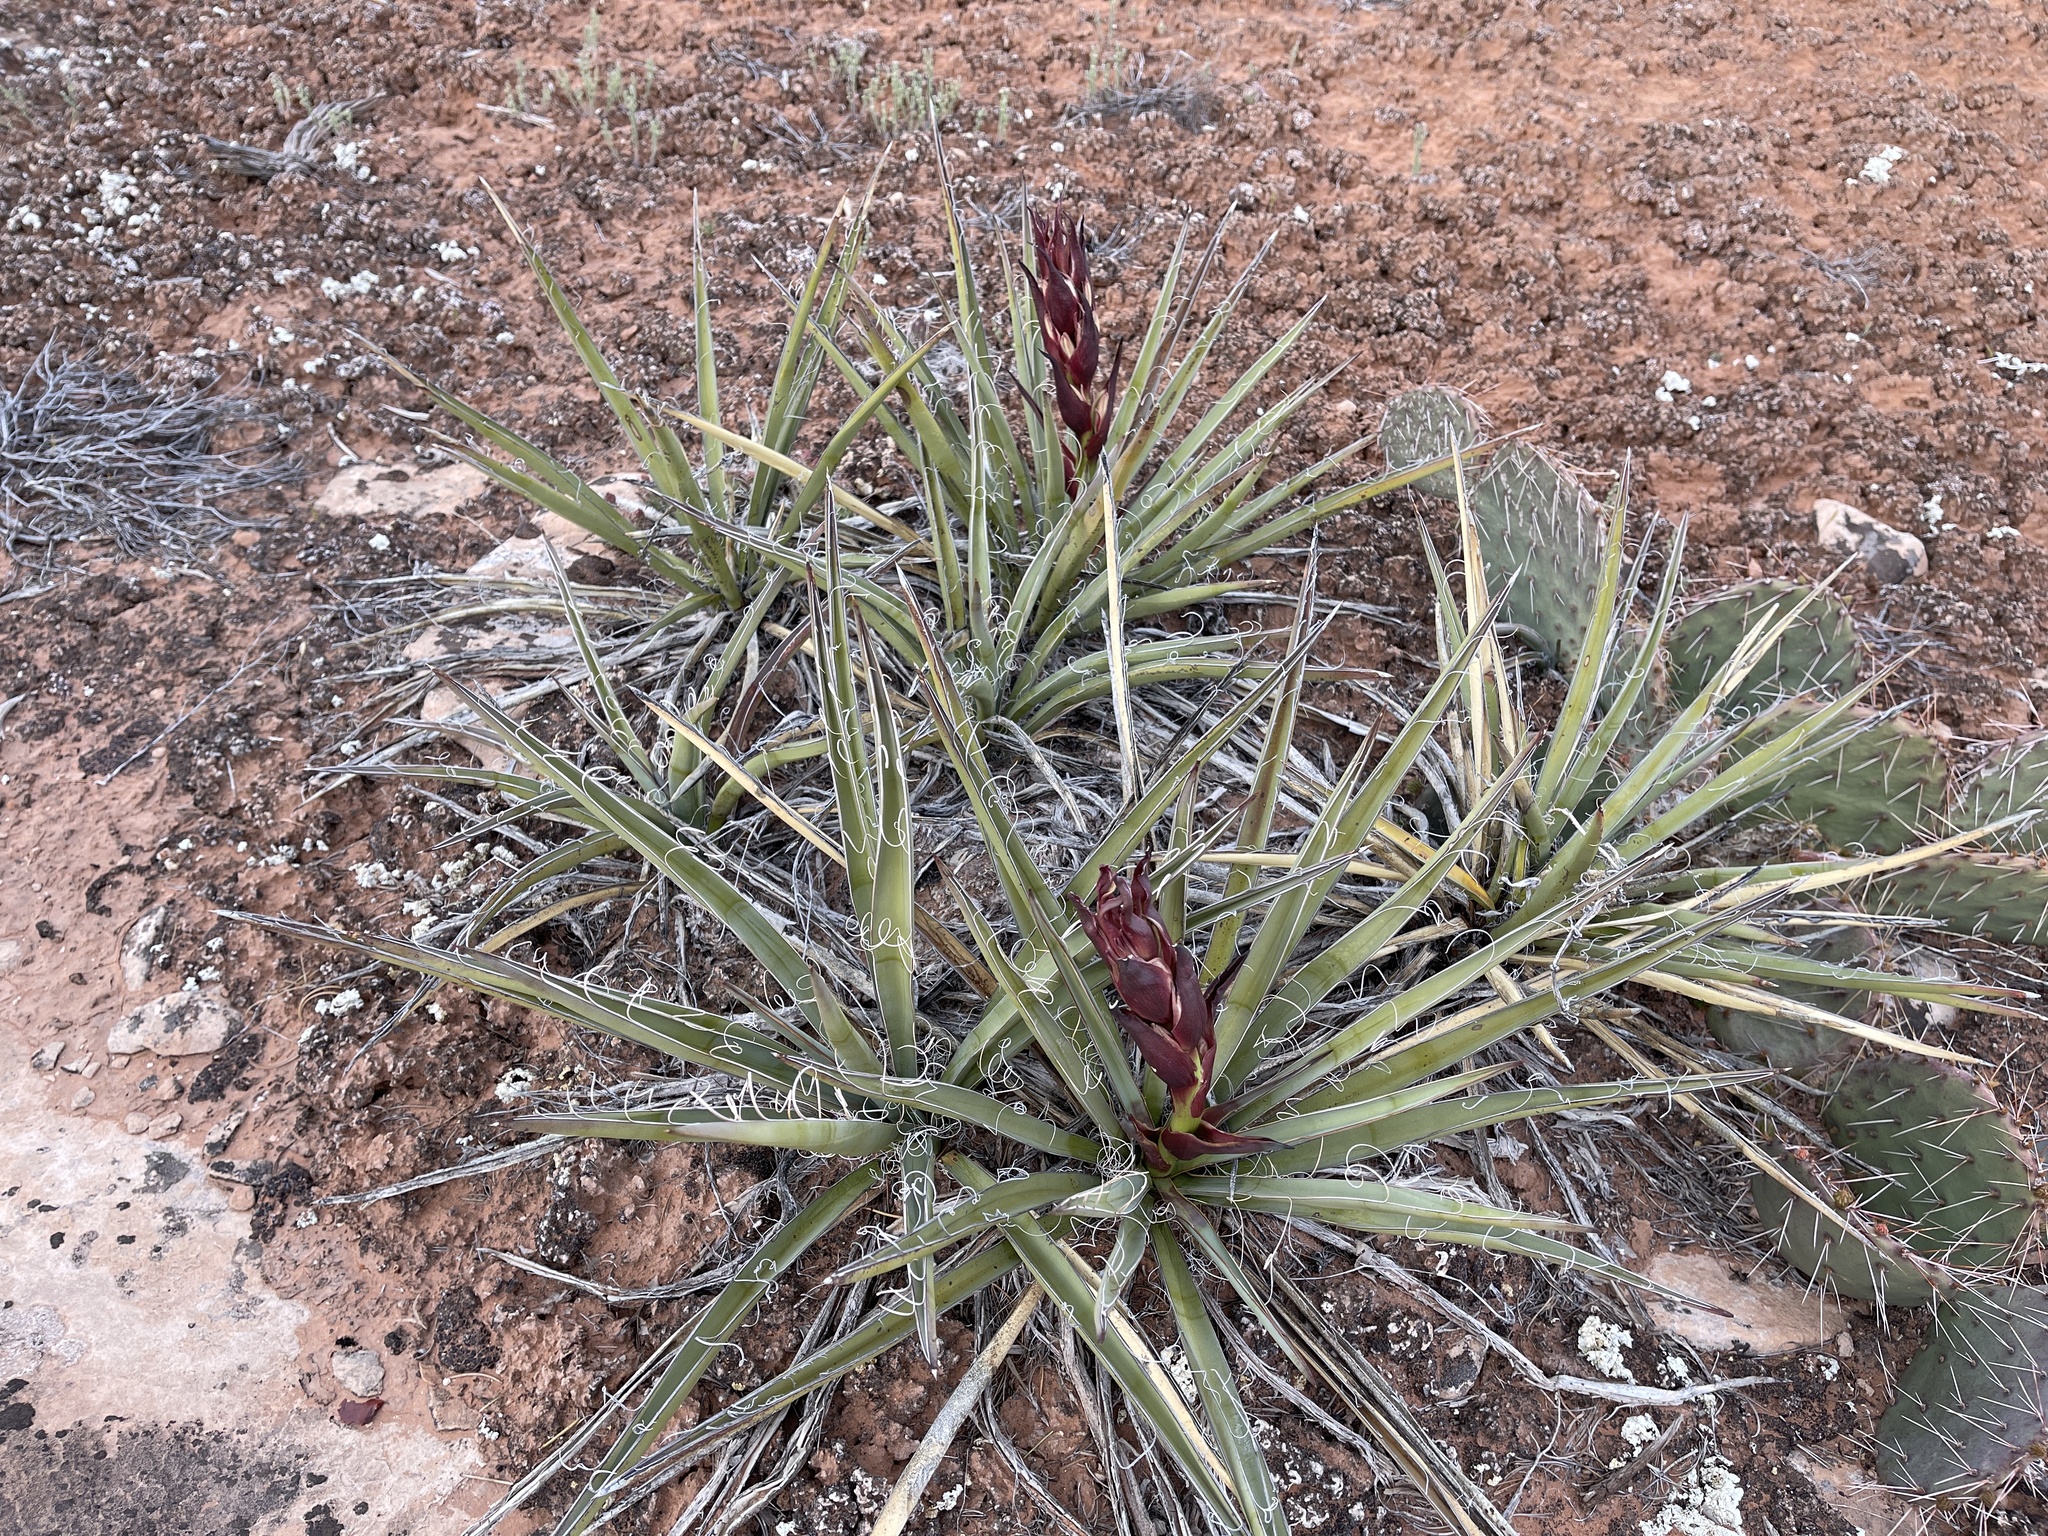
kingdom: Plantae
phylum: Tracheophyta
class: Liliopsida
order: Asparagales
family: Asparagaceae
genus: Yucca
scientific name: Yucca baccata
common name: Banana yucca
